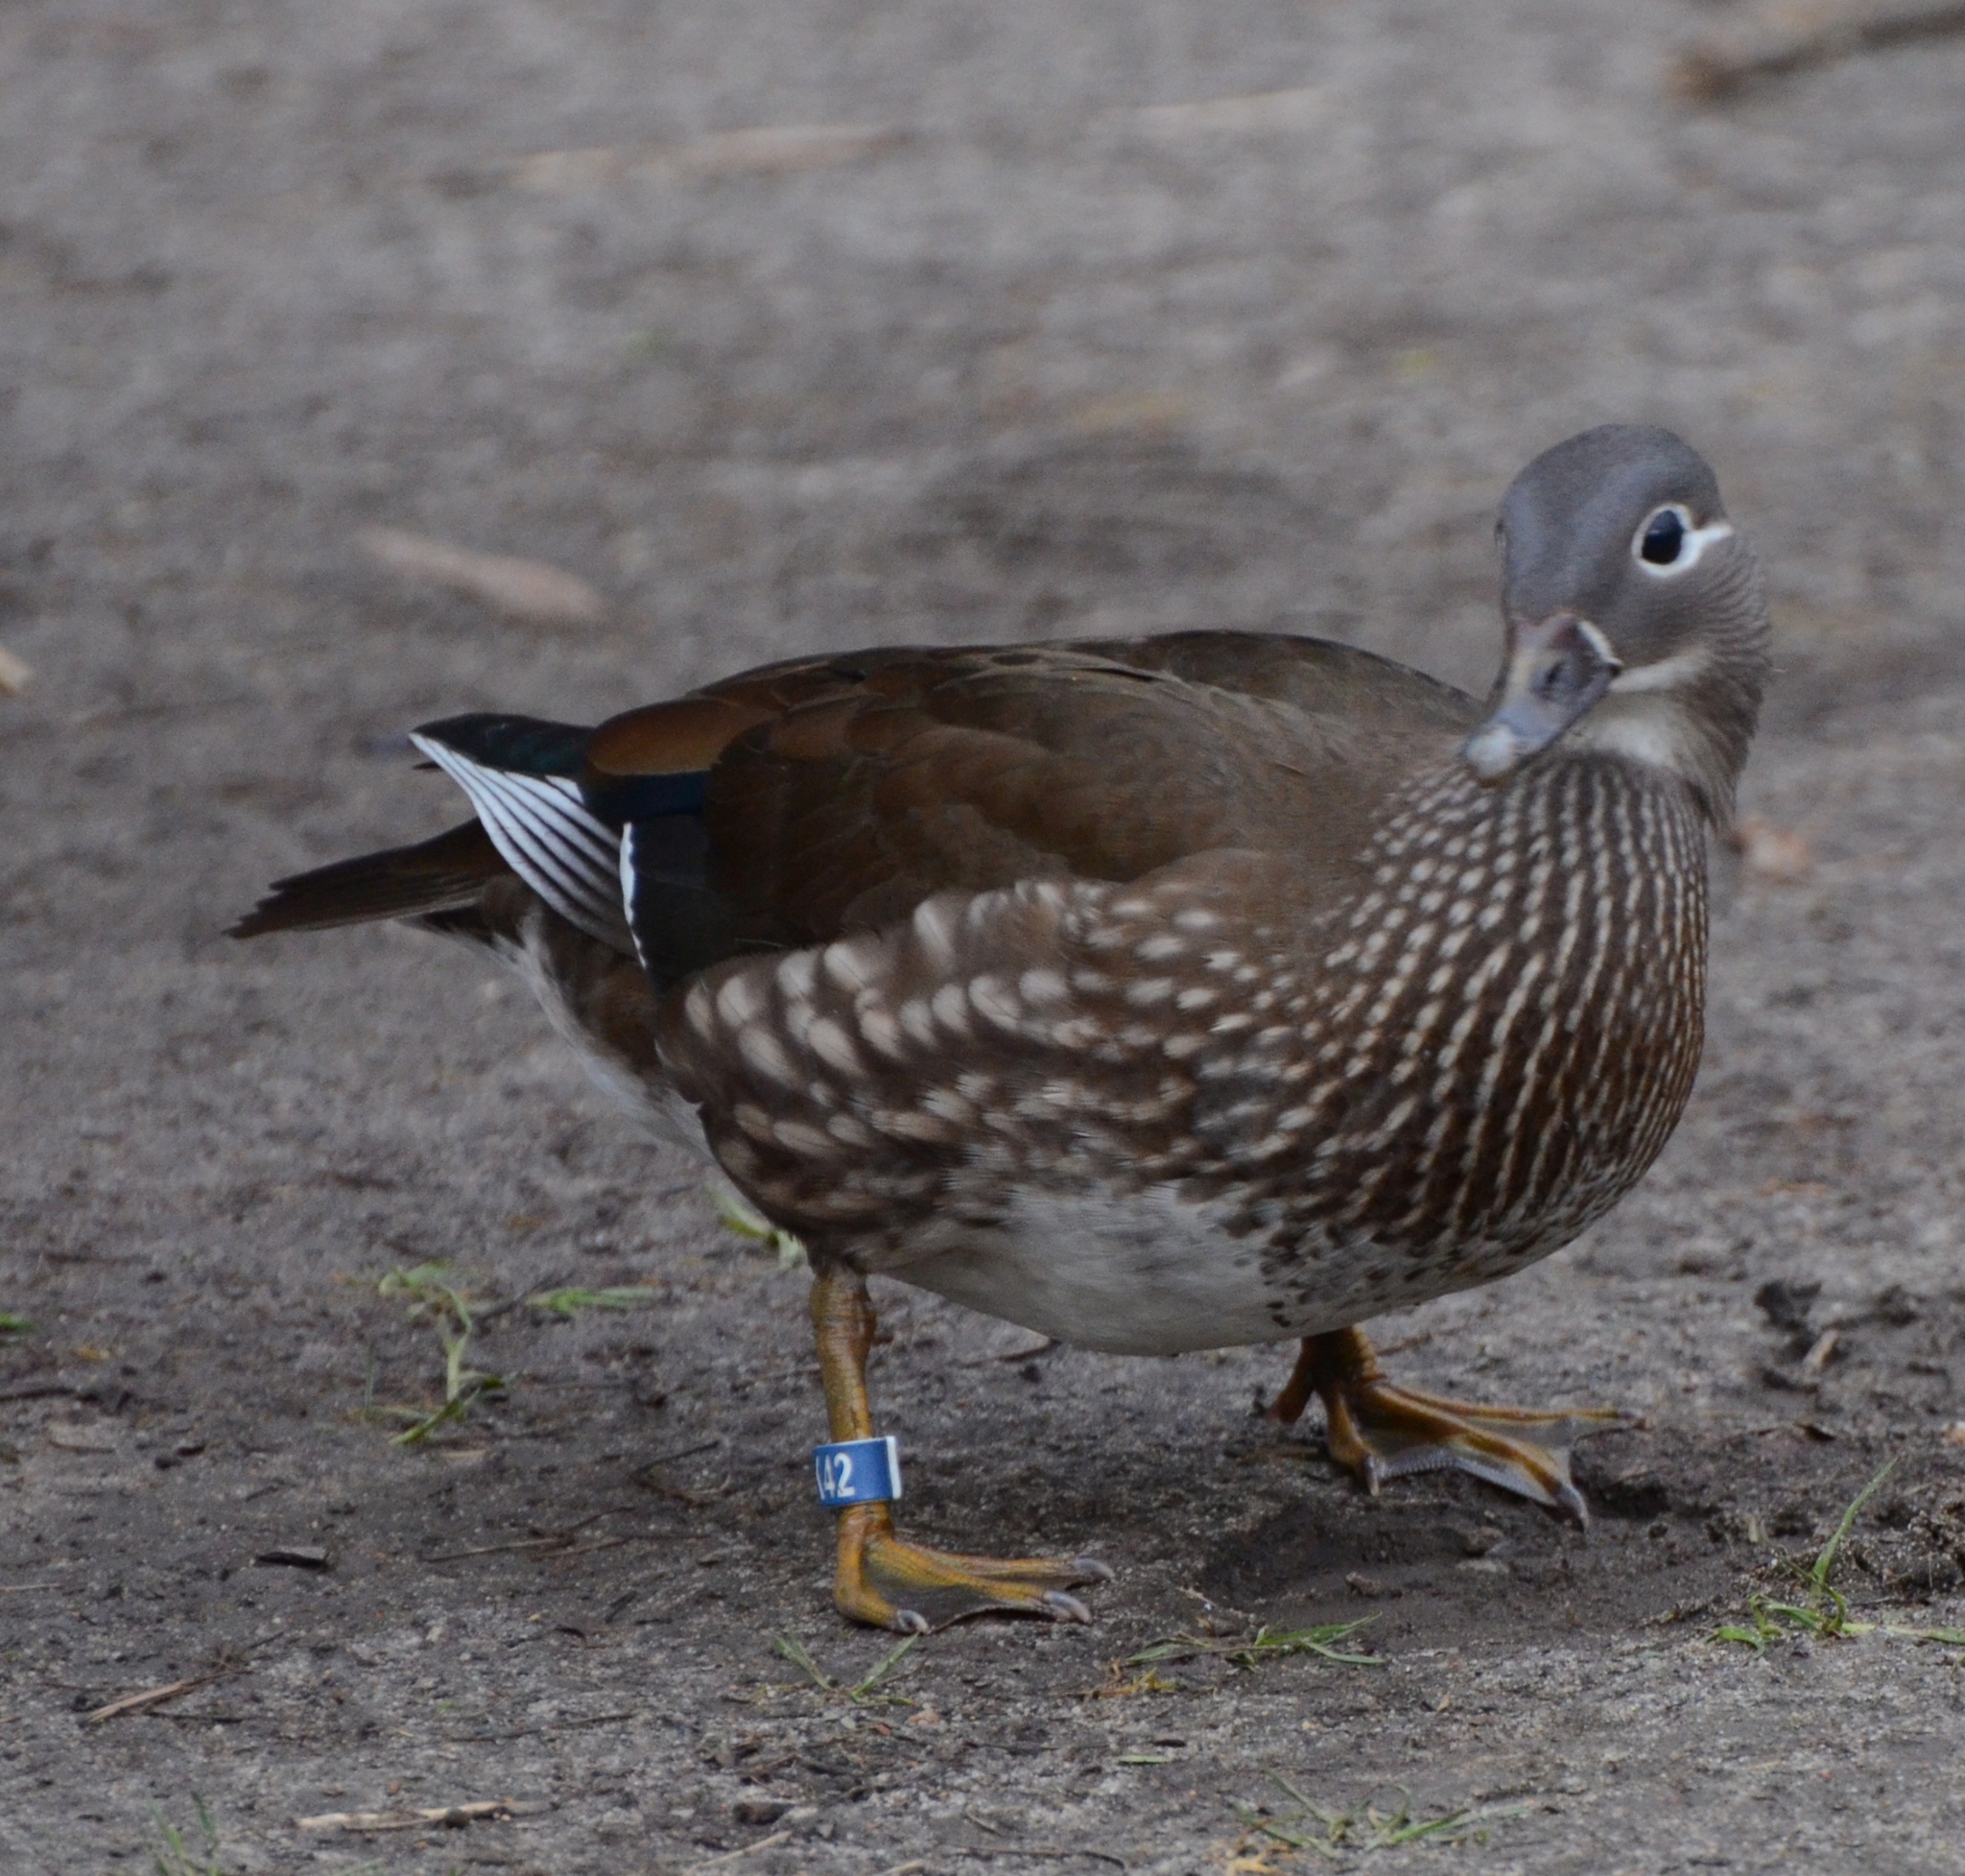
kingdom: Animalia
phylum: Chordata
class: Aves
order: Anseriformes
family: Anatidae
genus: Aix
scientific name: Aix galericulata
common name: Mandarin duck
